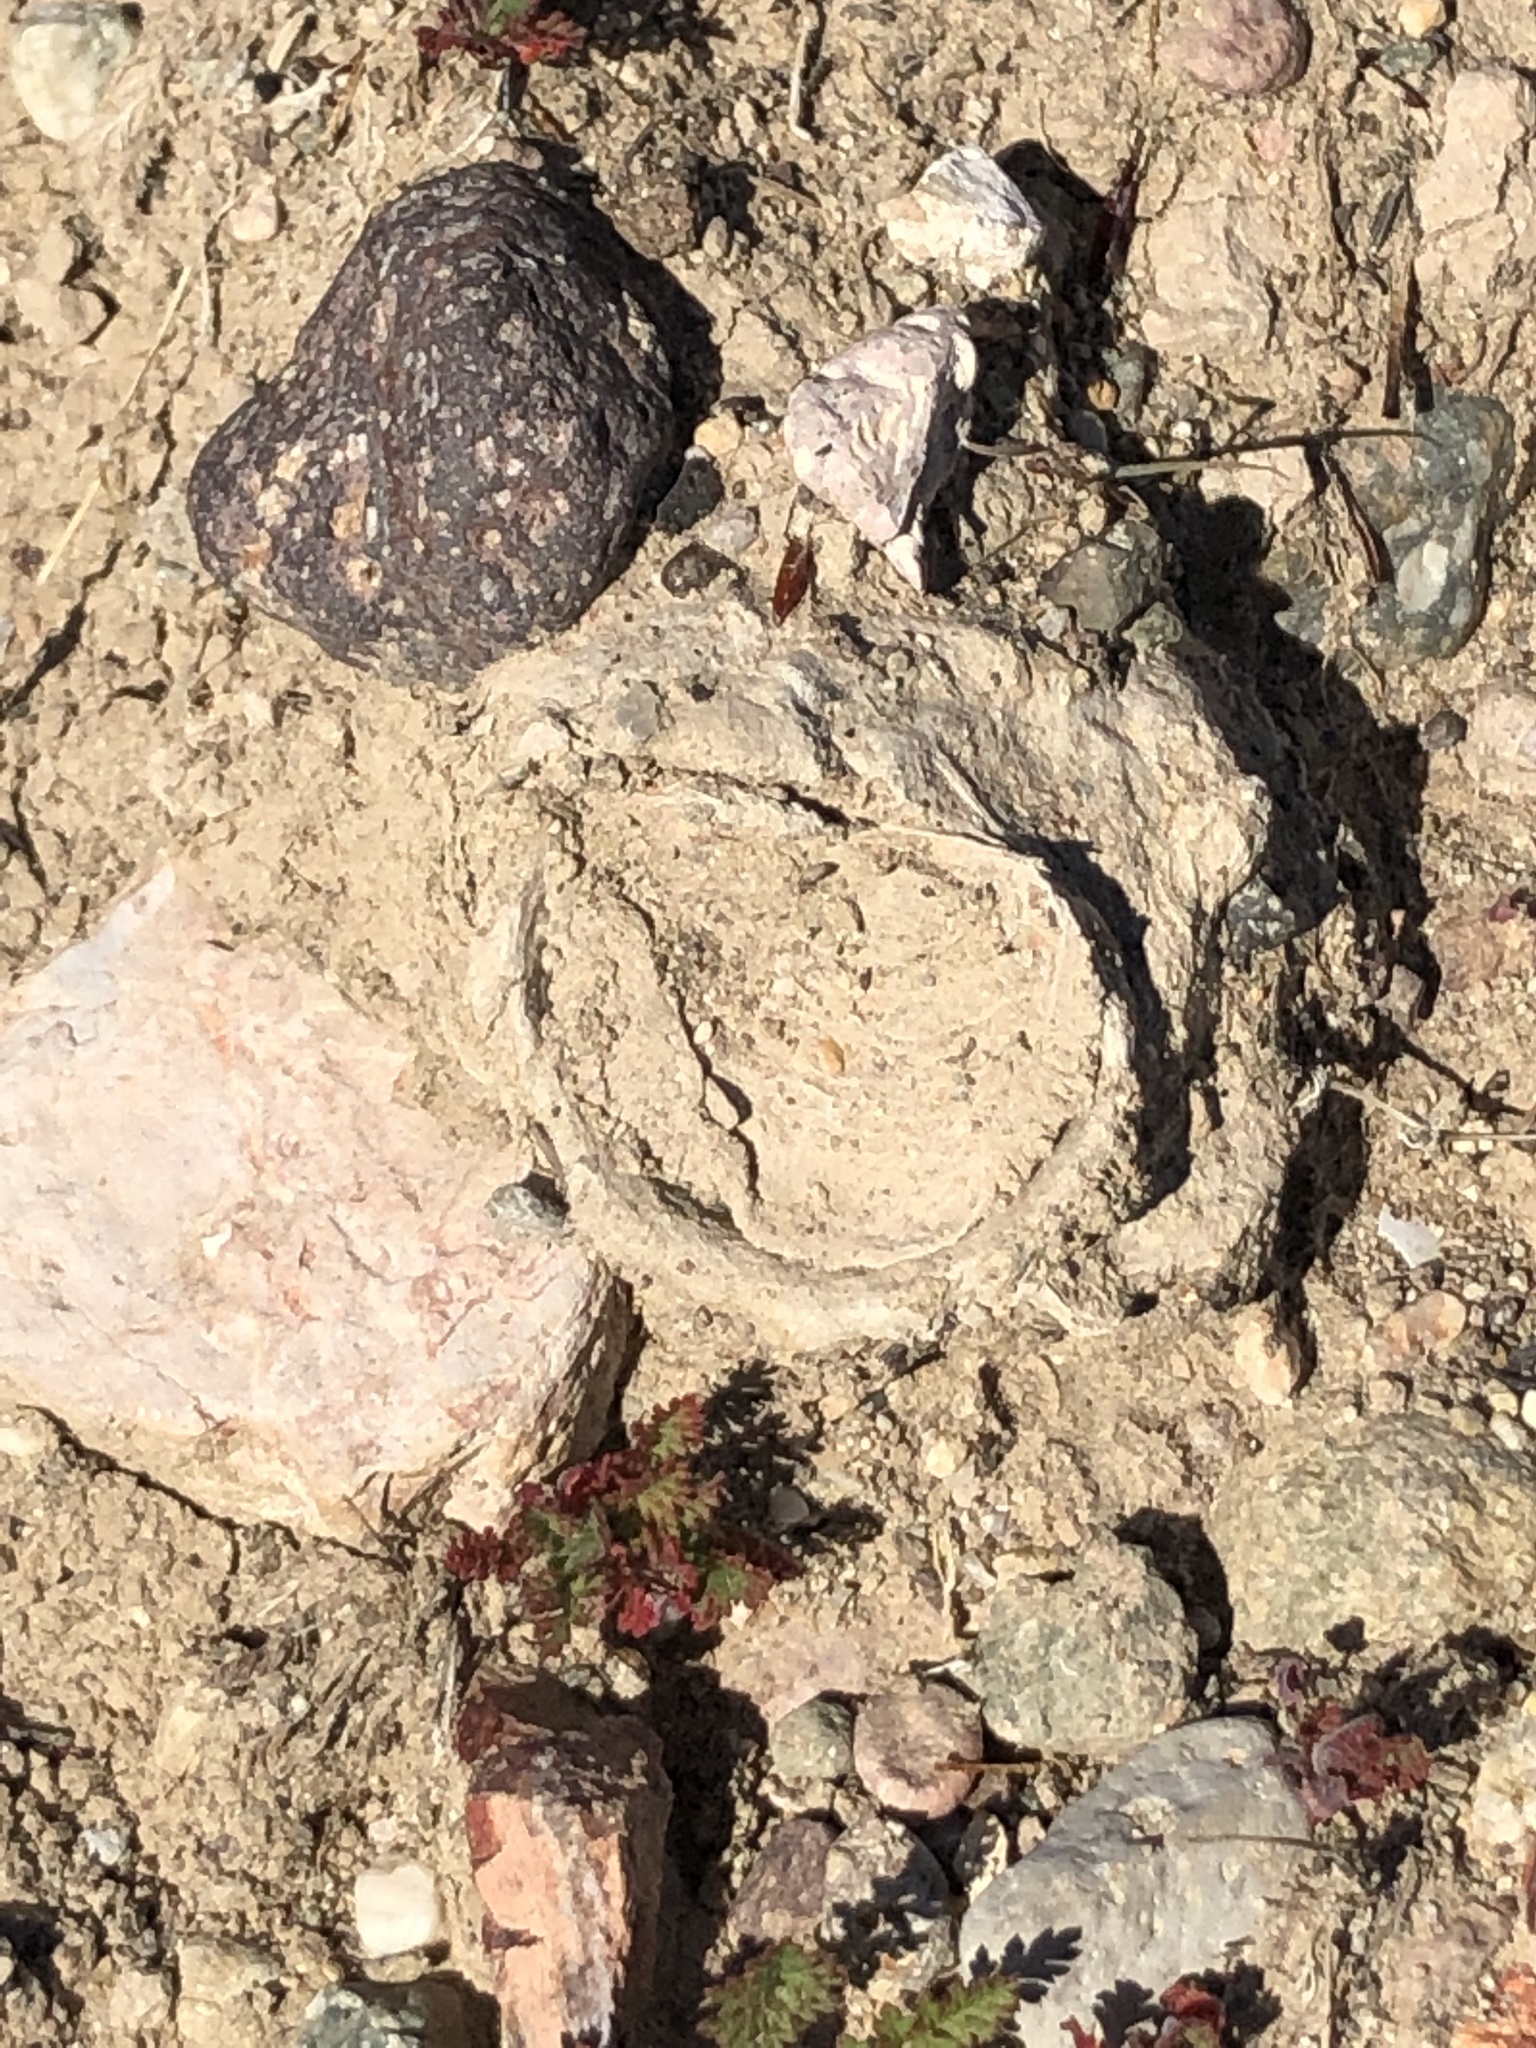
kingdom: Animalia
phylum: Arthropoda
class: Arachnida
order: Araneae
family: Halonoproctidae
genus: Bothriocyrtum
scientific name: Bothriocyrtum californicum
